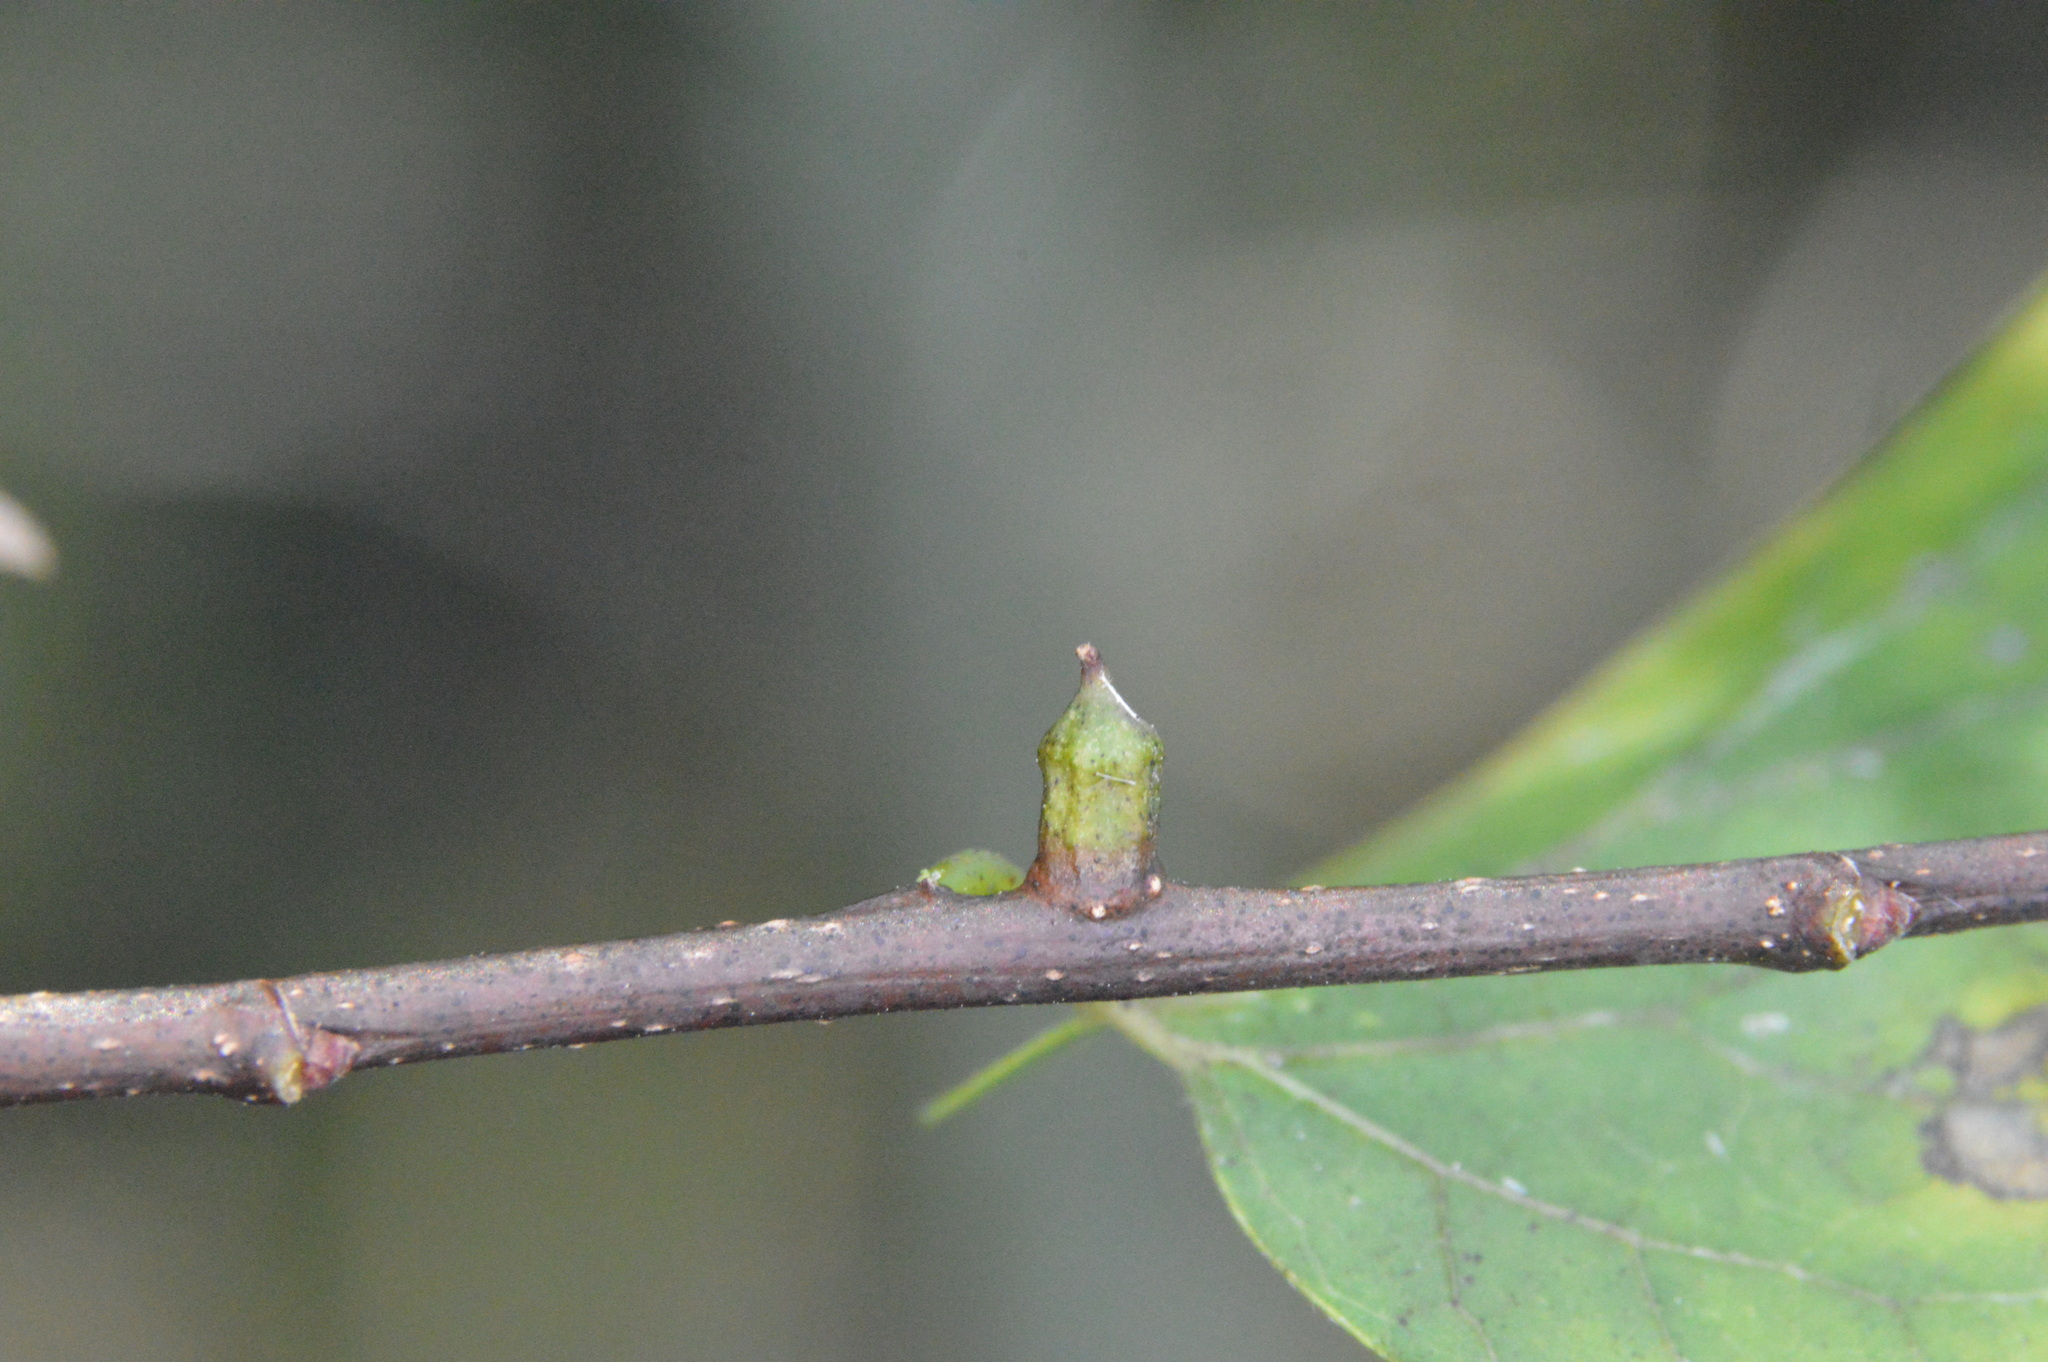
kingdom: Animalia
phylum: Arthropoda
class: Insecta
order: Diptera
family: Cecidomyiidae
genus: Celticecis
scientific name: Celticecis ramicola
